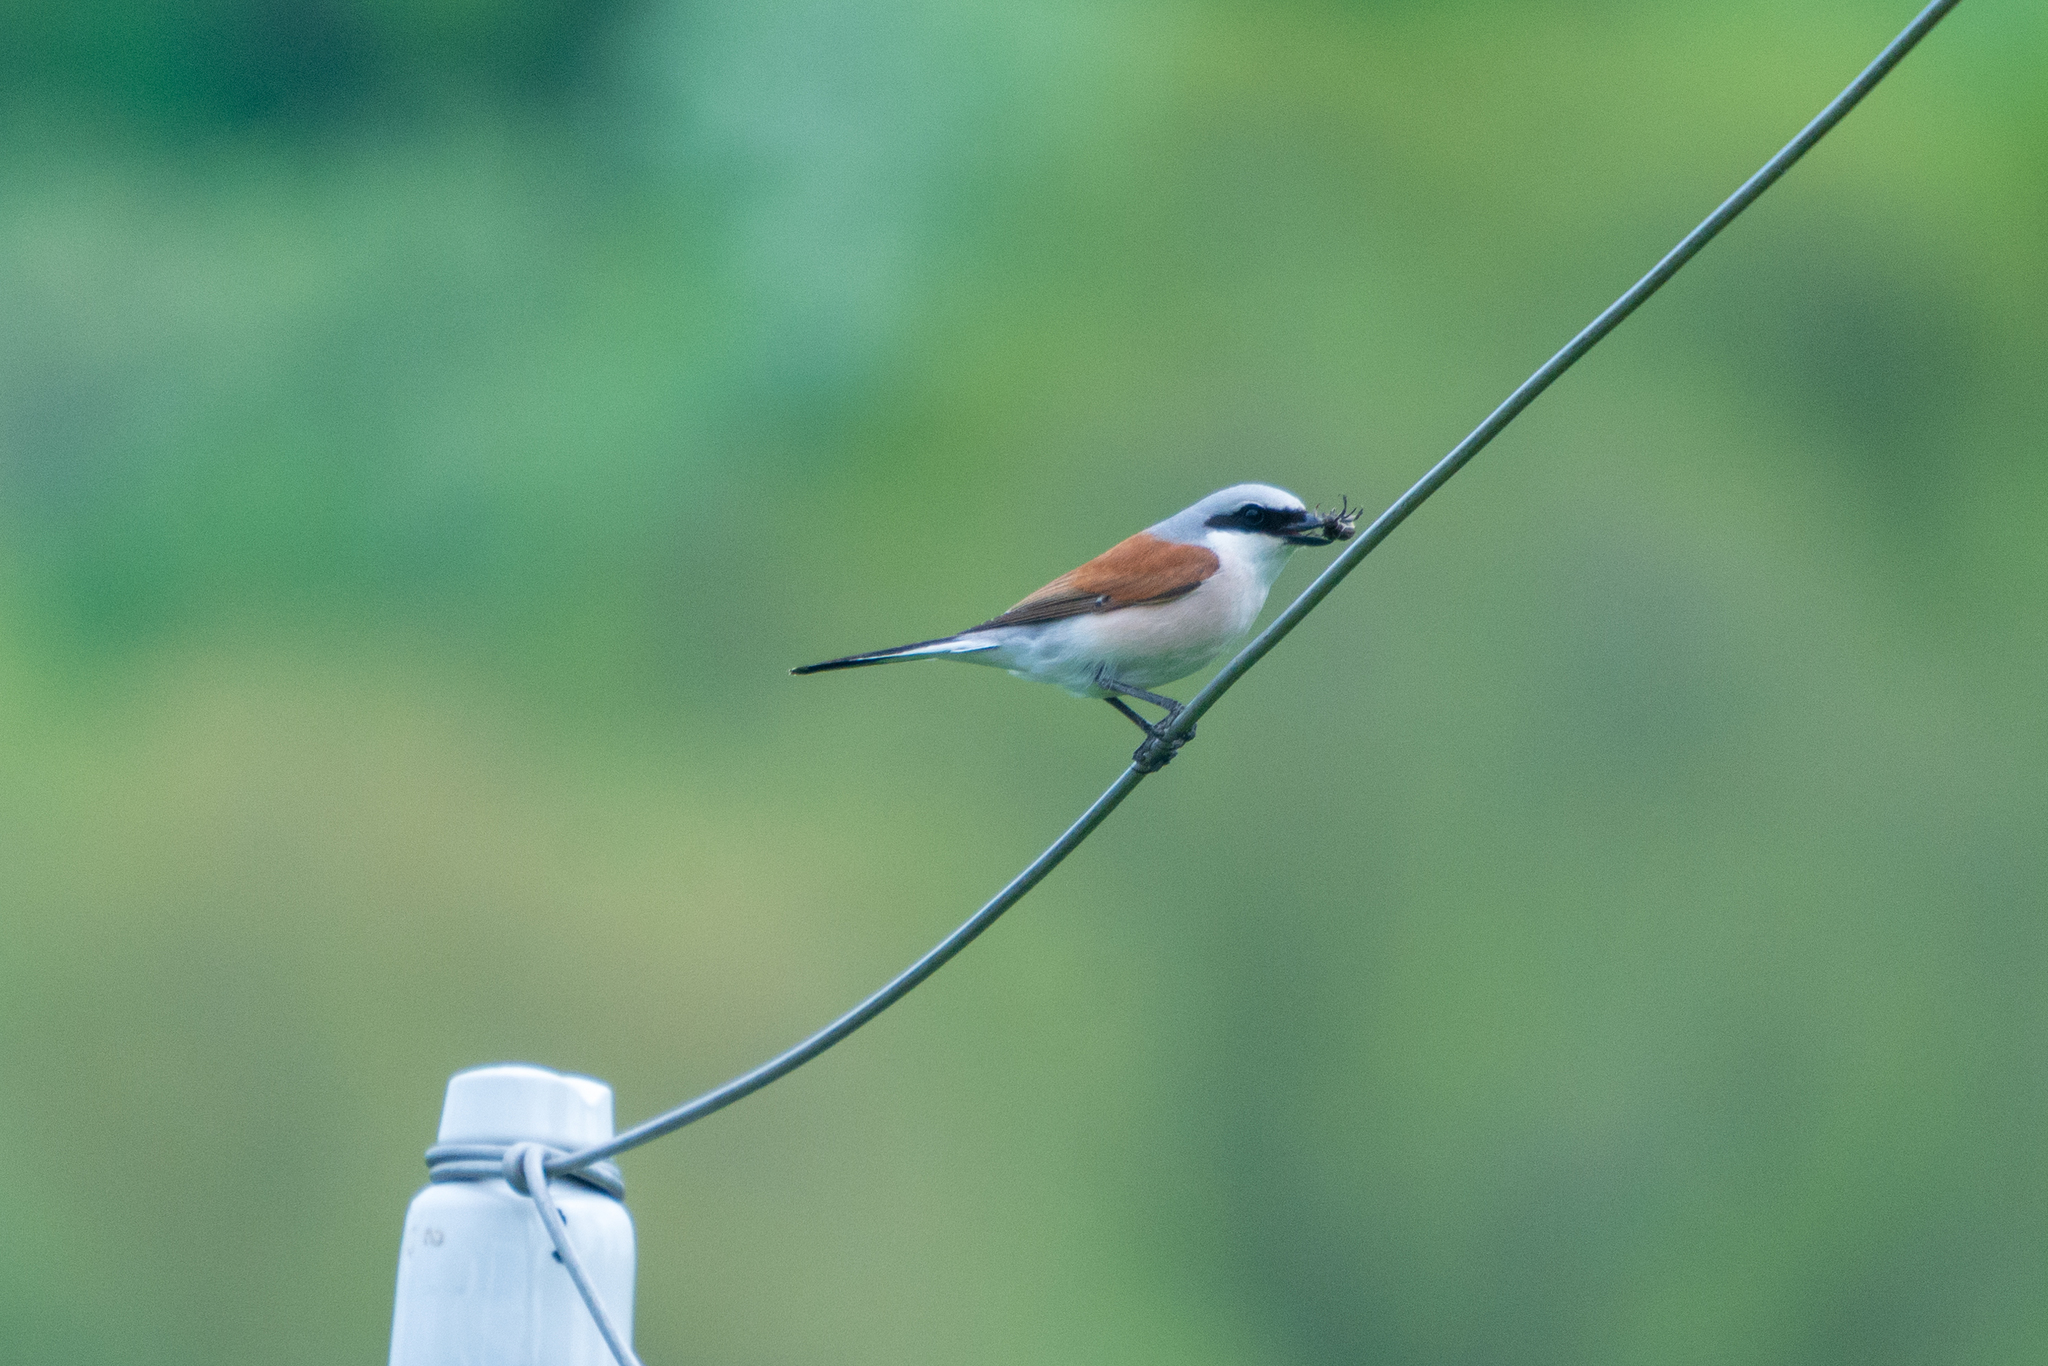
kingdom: Animalia
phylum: Chordata
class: Aves
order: Passeriformes
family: Laniidae
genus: Lanius
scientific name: Lanius collurio
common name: Red-backed shrike
